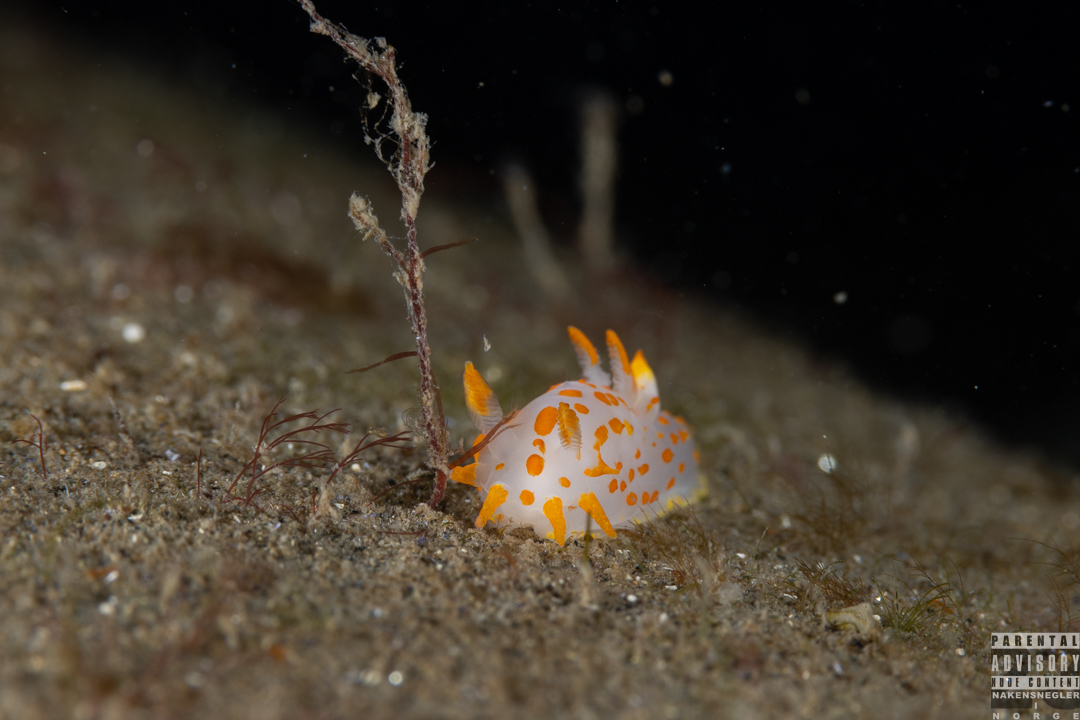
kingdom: Animalia
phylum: Mollusca
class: Gastropoda
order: Nudibranchia
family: Polyceridae
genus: Polycera
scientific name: Polycera quadrilineata
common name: Four-striped polycera
